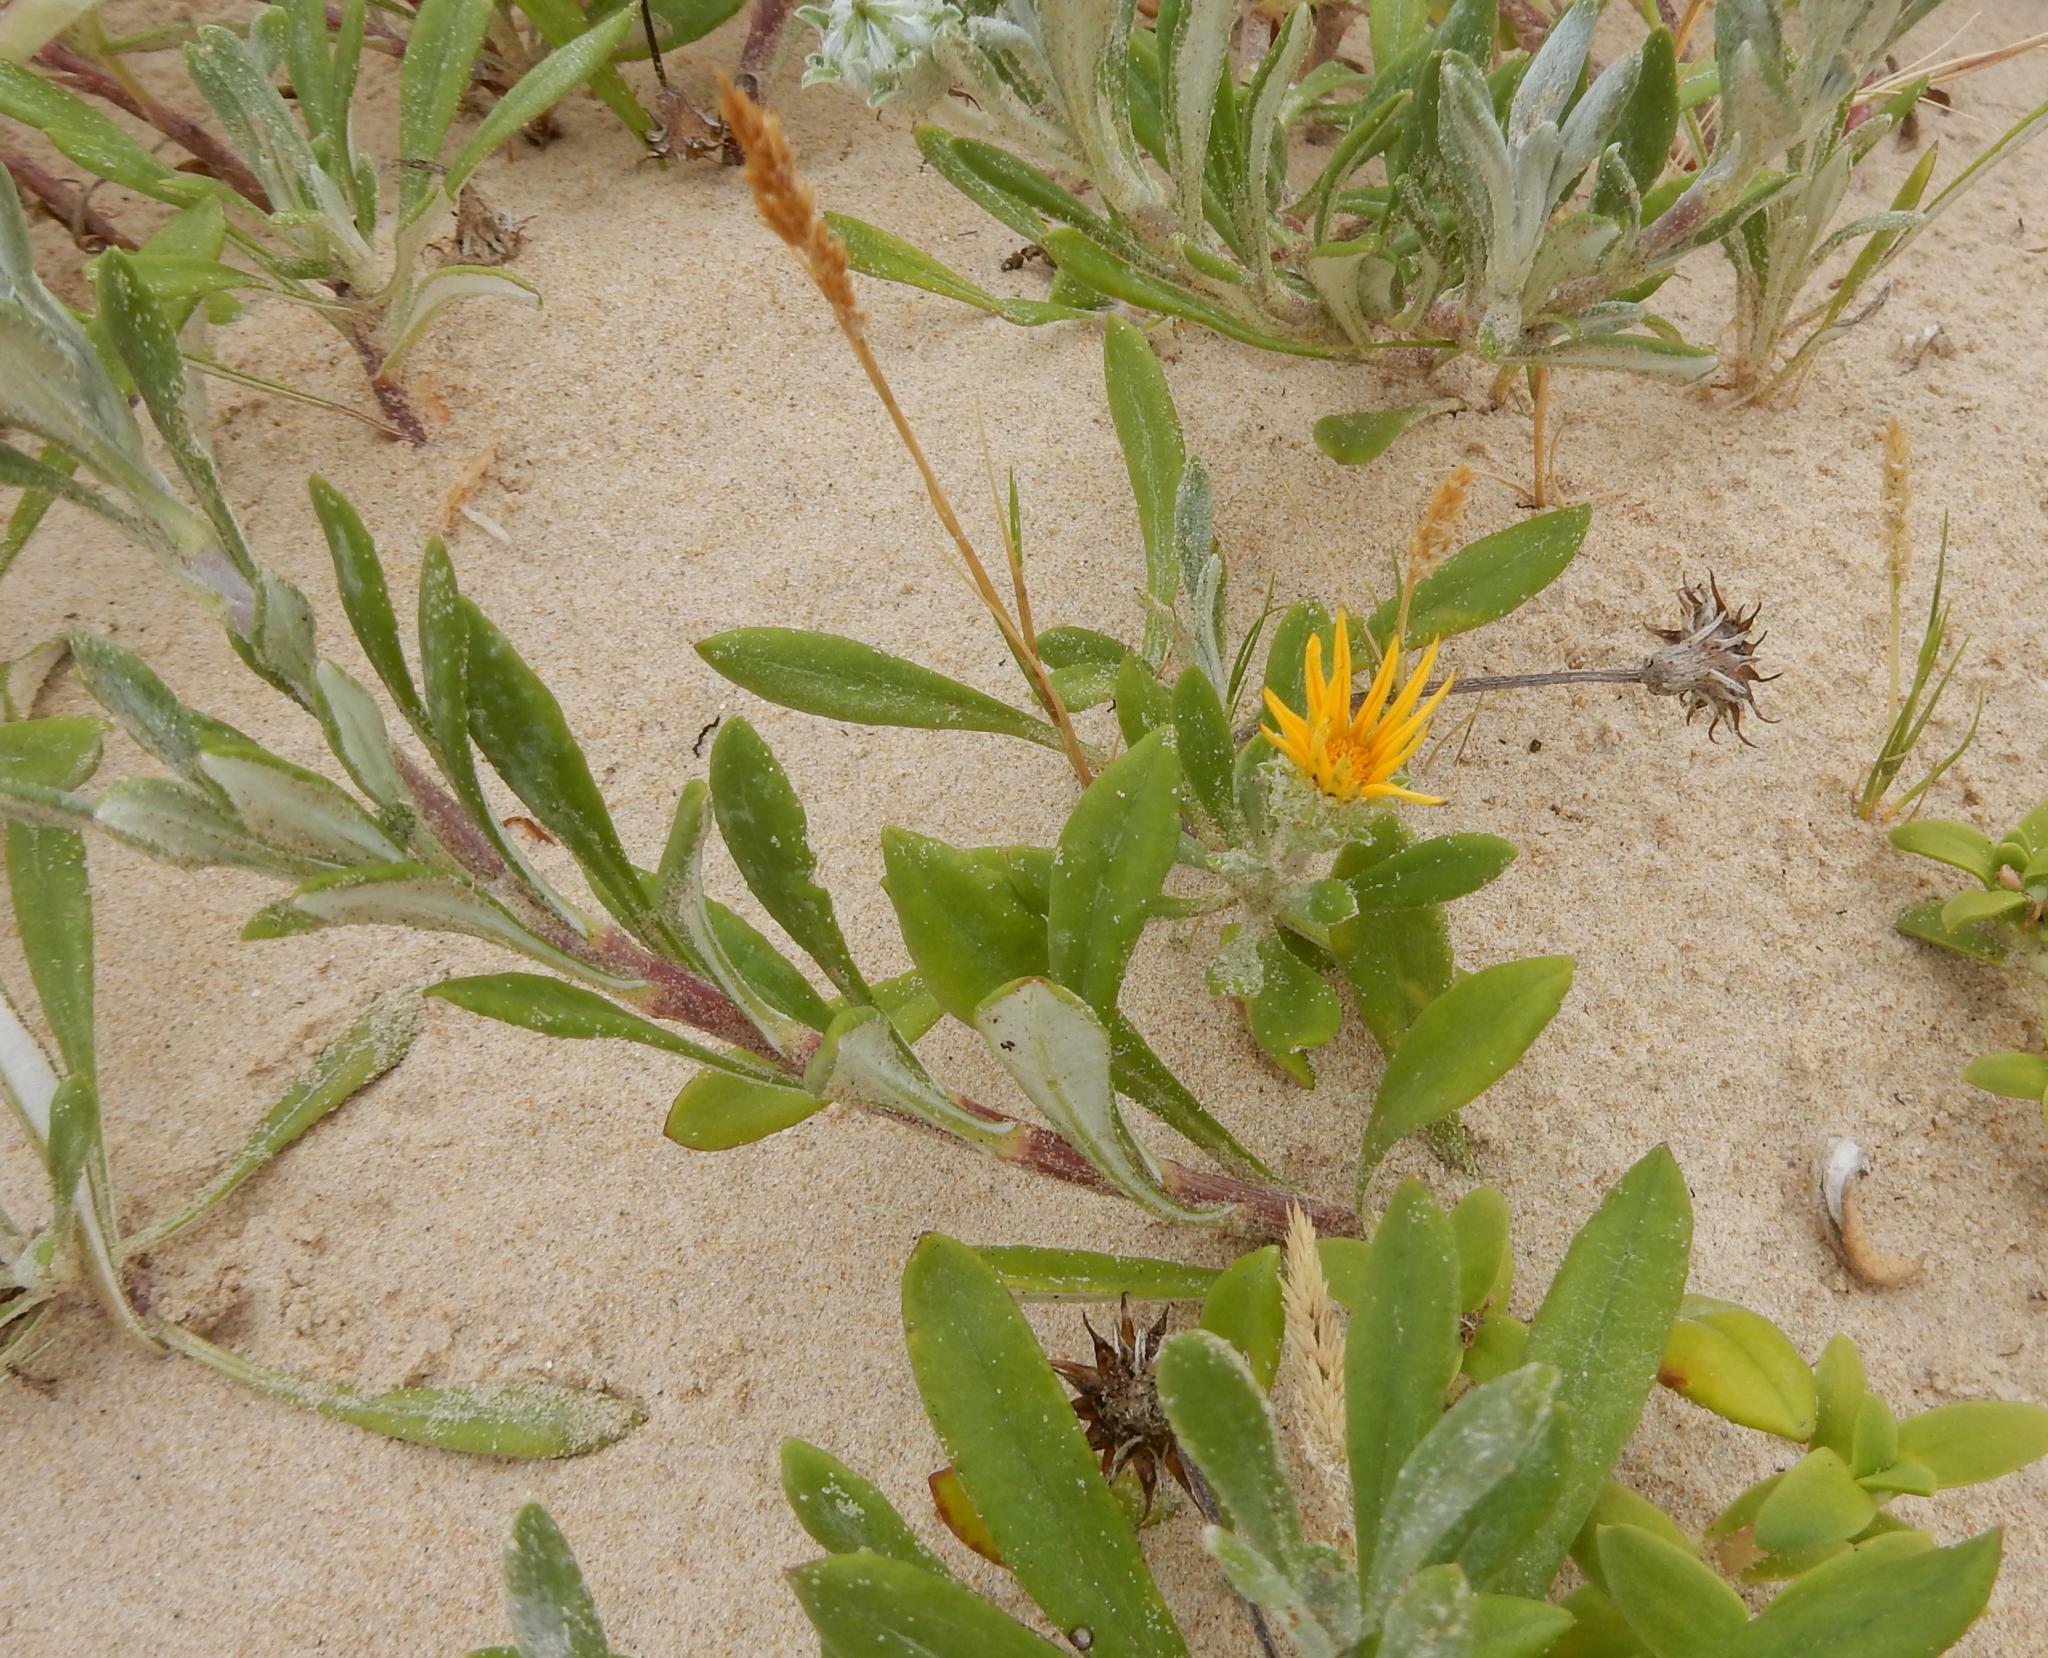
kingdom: Plantae
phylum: Tracheophyta
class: Magnoliopsida
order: Asterales
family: Asteraceae
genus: Gazania
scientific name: Gazania rigens
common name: Treasureflower
